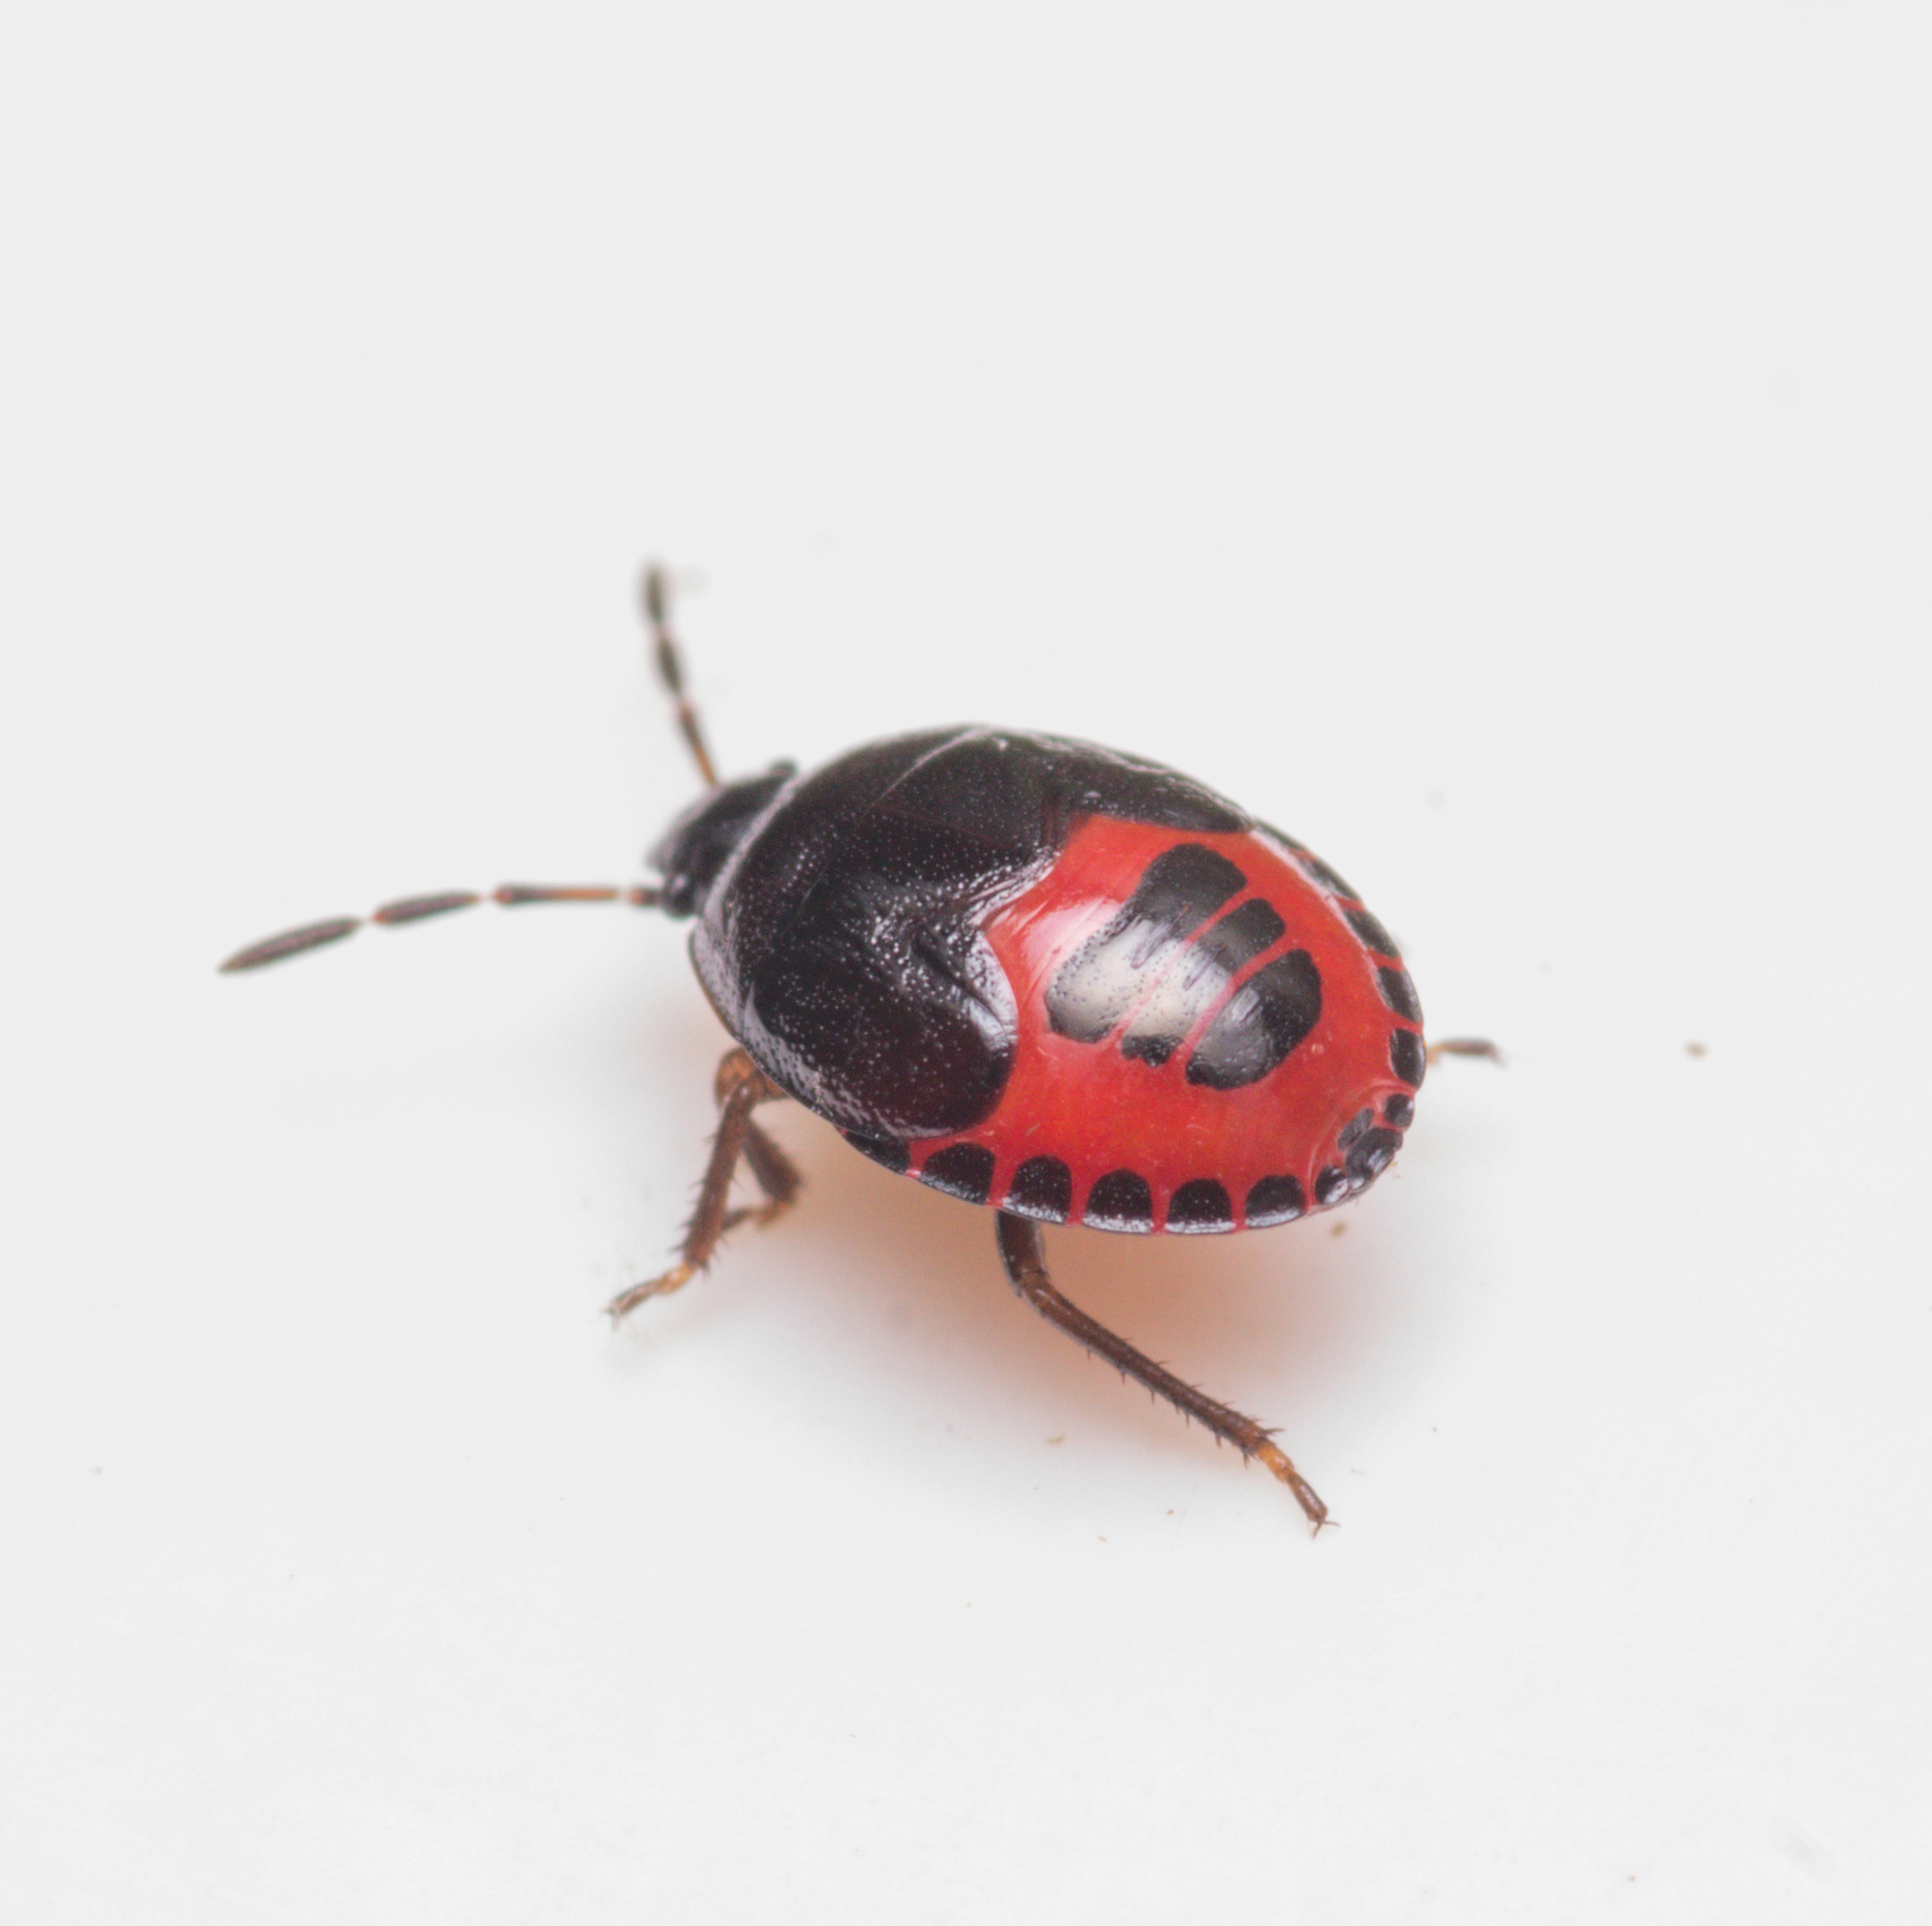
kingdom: Animalia
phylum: Arthropoda
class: Insecta
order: Hemiptera
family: Cydnidae
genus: Sehirus
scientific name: Sehirus cinctus
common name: White-margined burrower bug
